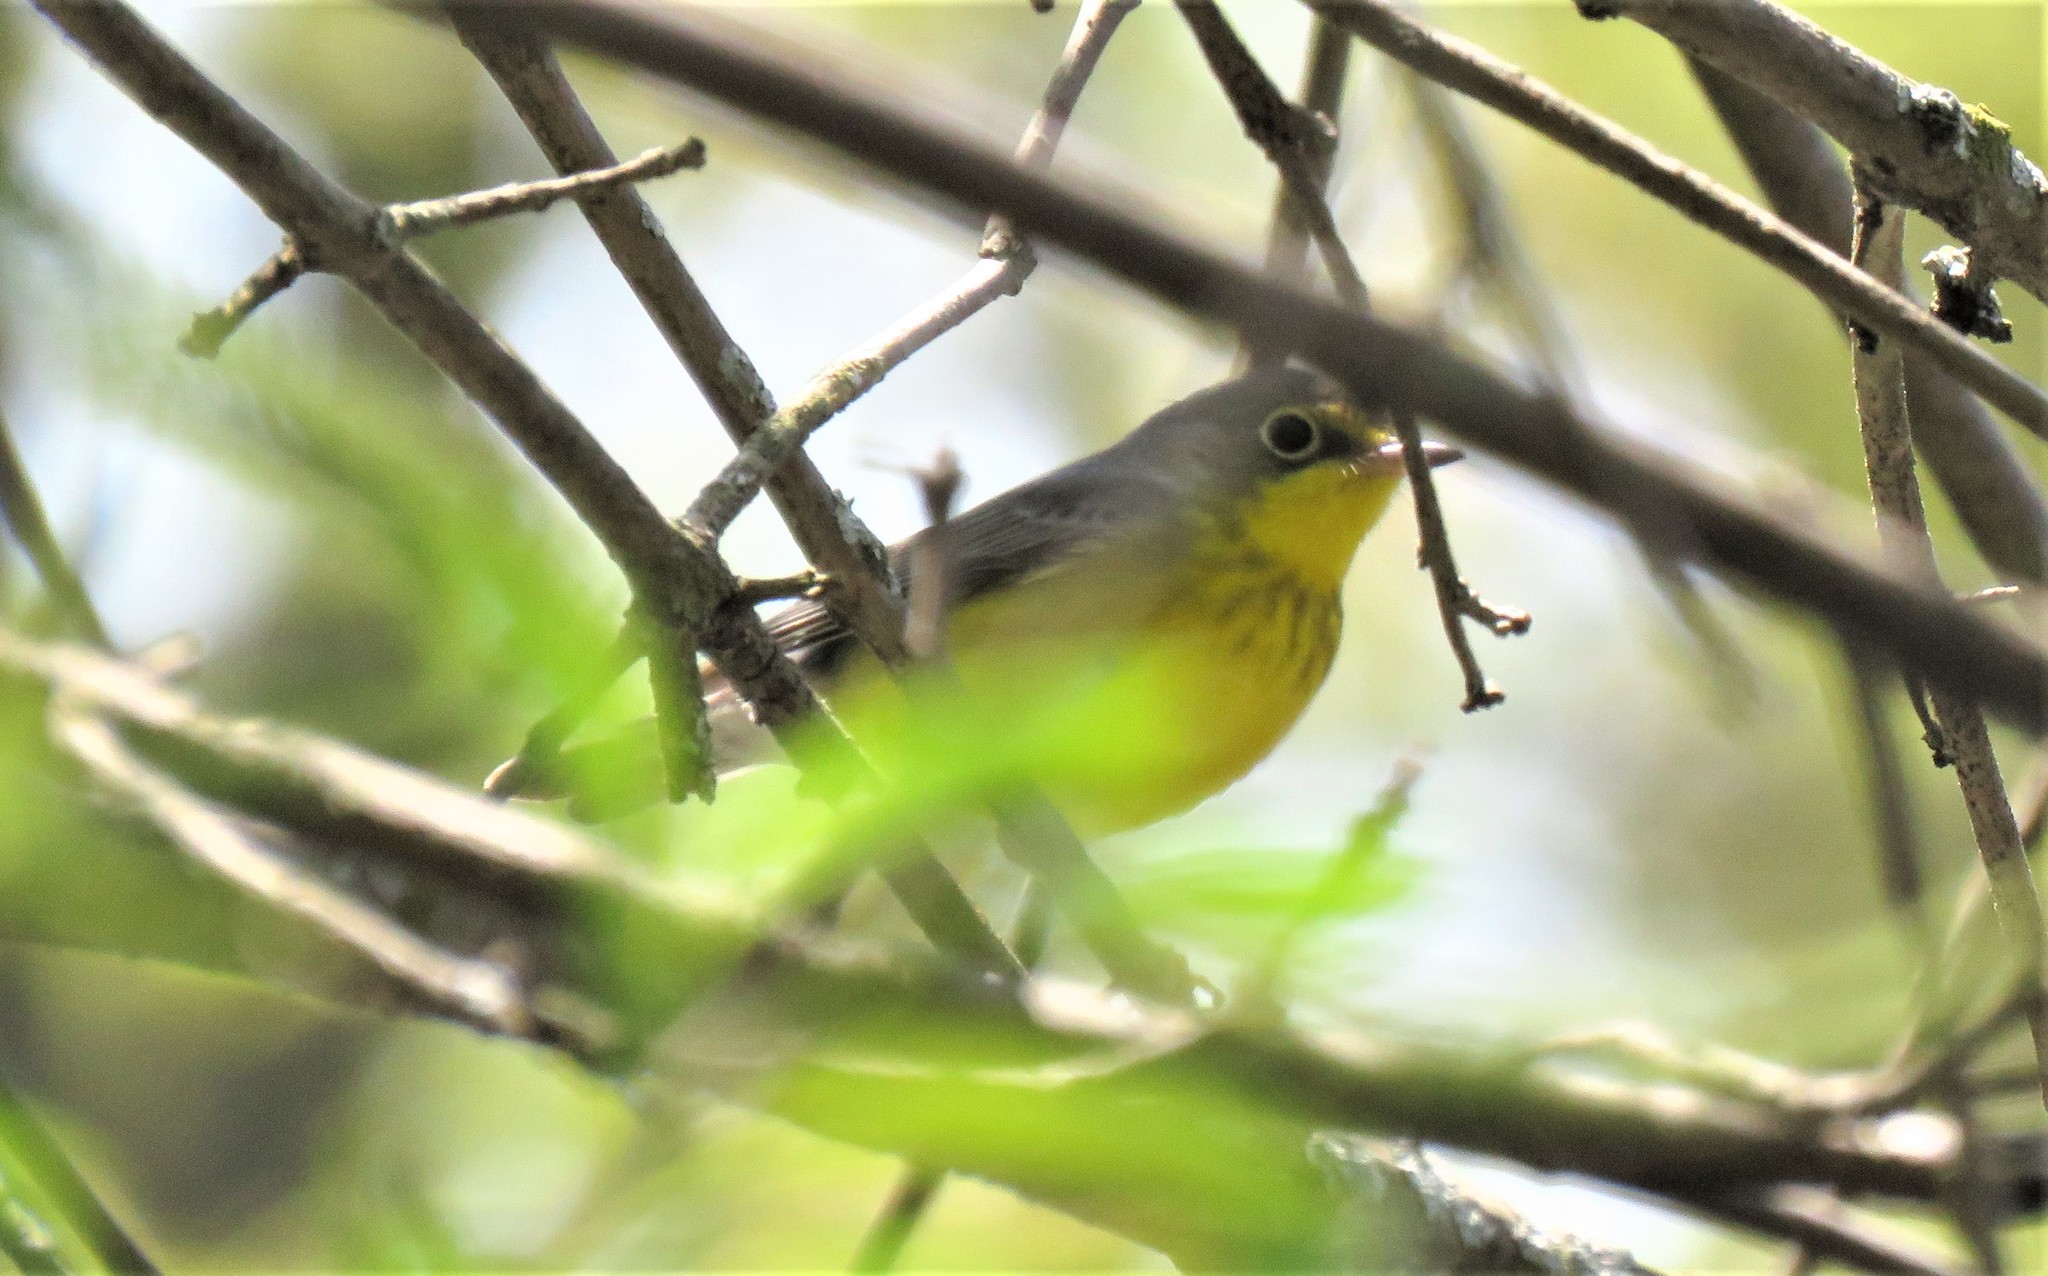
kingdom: Animalia
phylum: Chordata
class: Aves
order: Passeriformes
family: Parulidae
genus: Cardellina
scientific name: Cardellina canadensis
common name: Canada warbler
